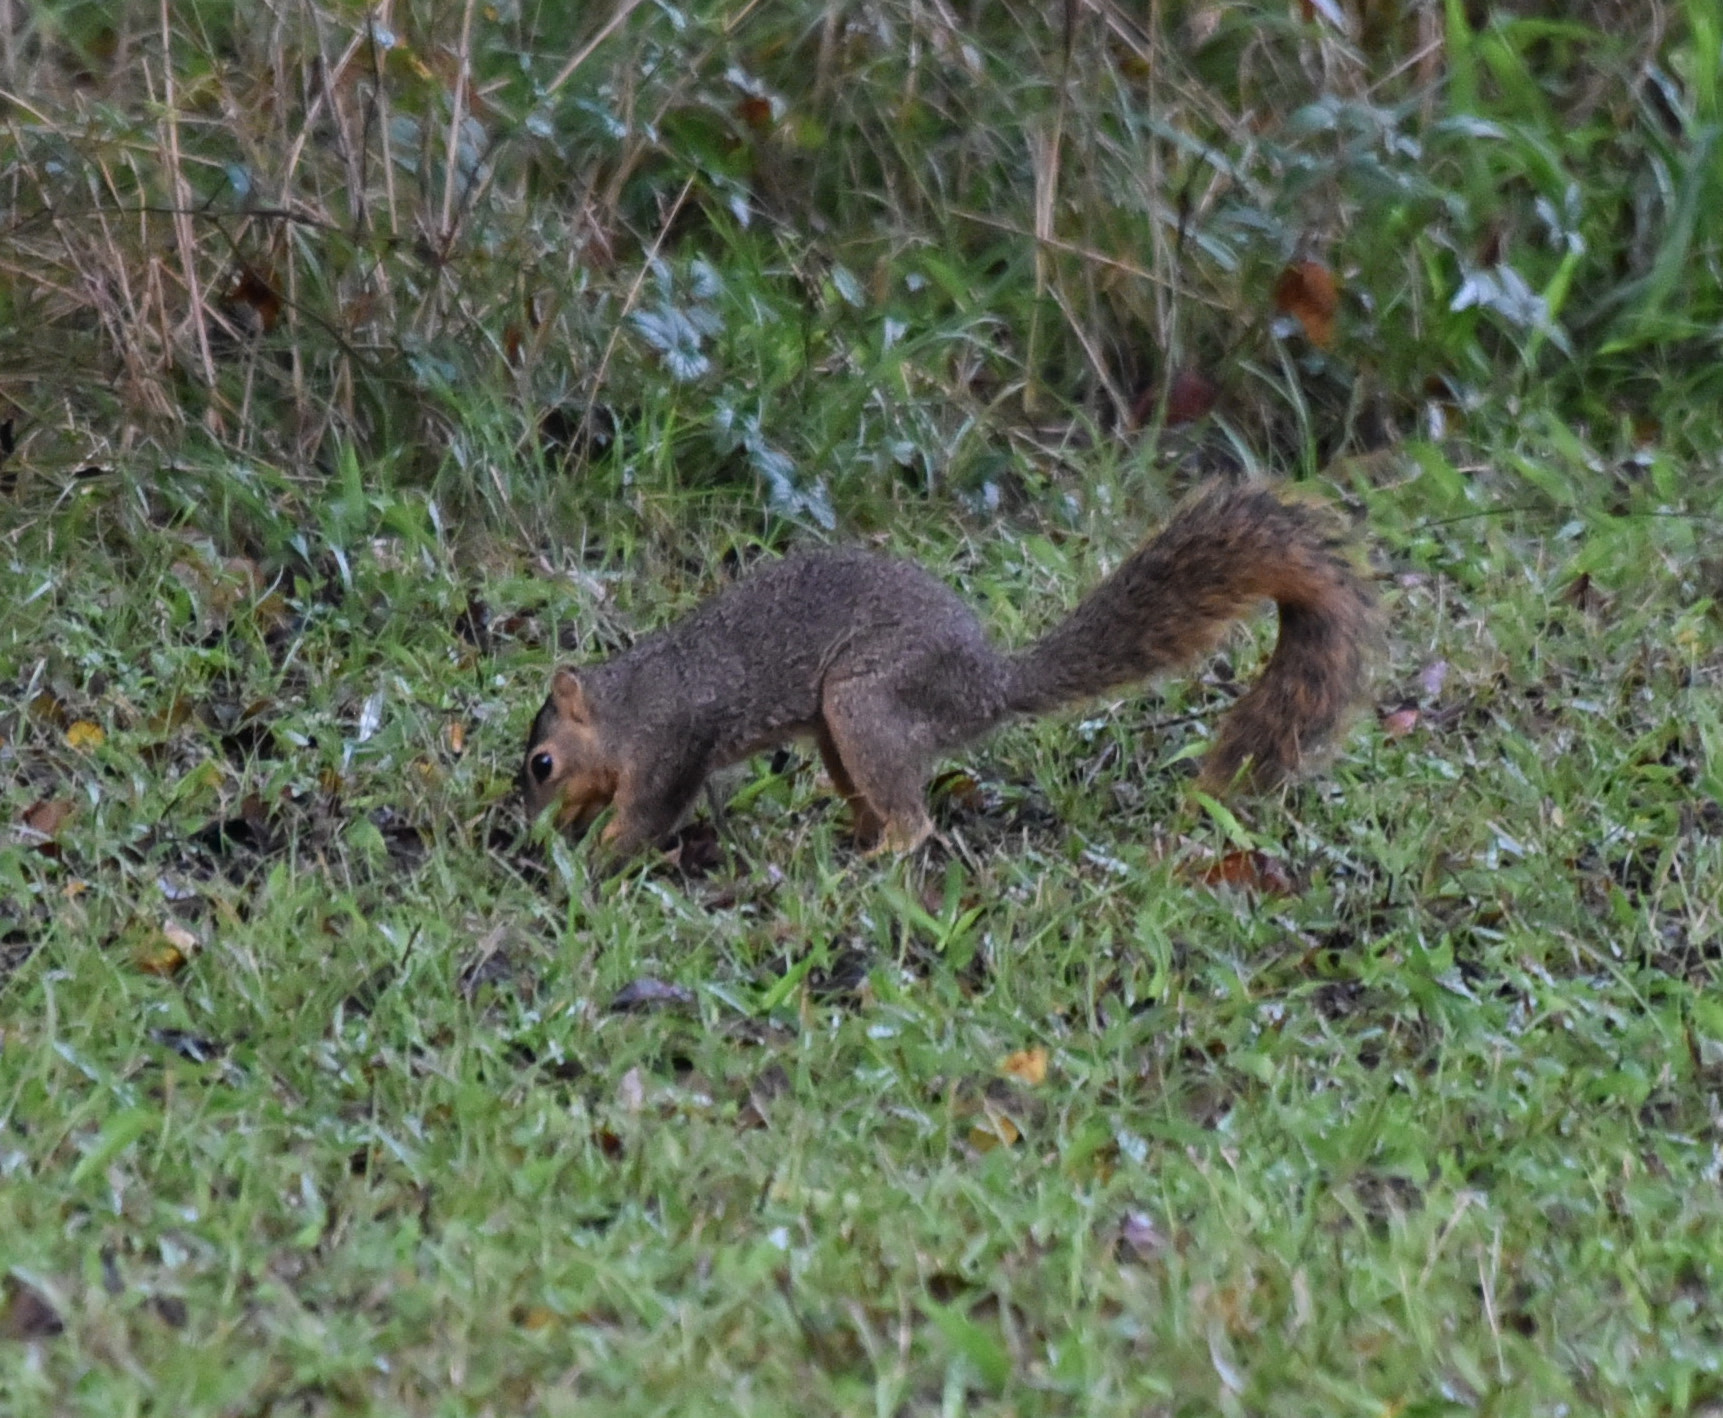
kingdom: Animalia
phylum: Chordata
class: Mammalia
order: Rodentia
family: Sciuridae
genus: Sciurus
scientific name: Sciurus niger
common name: Fox squirrel
